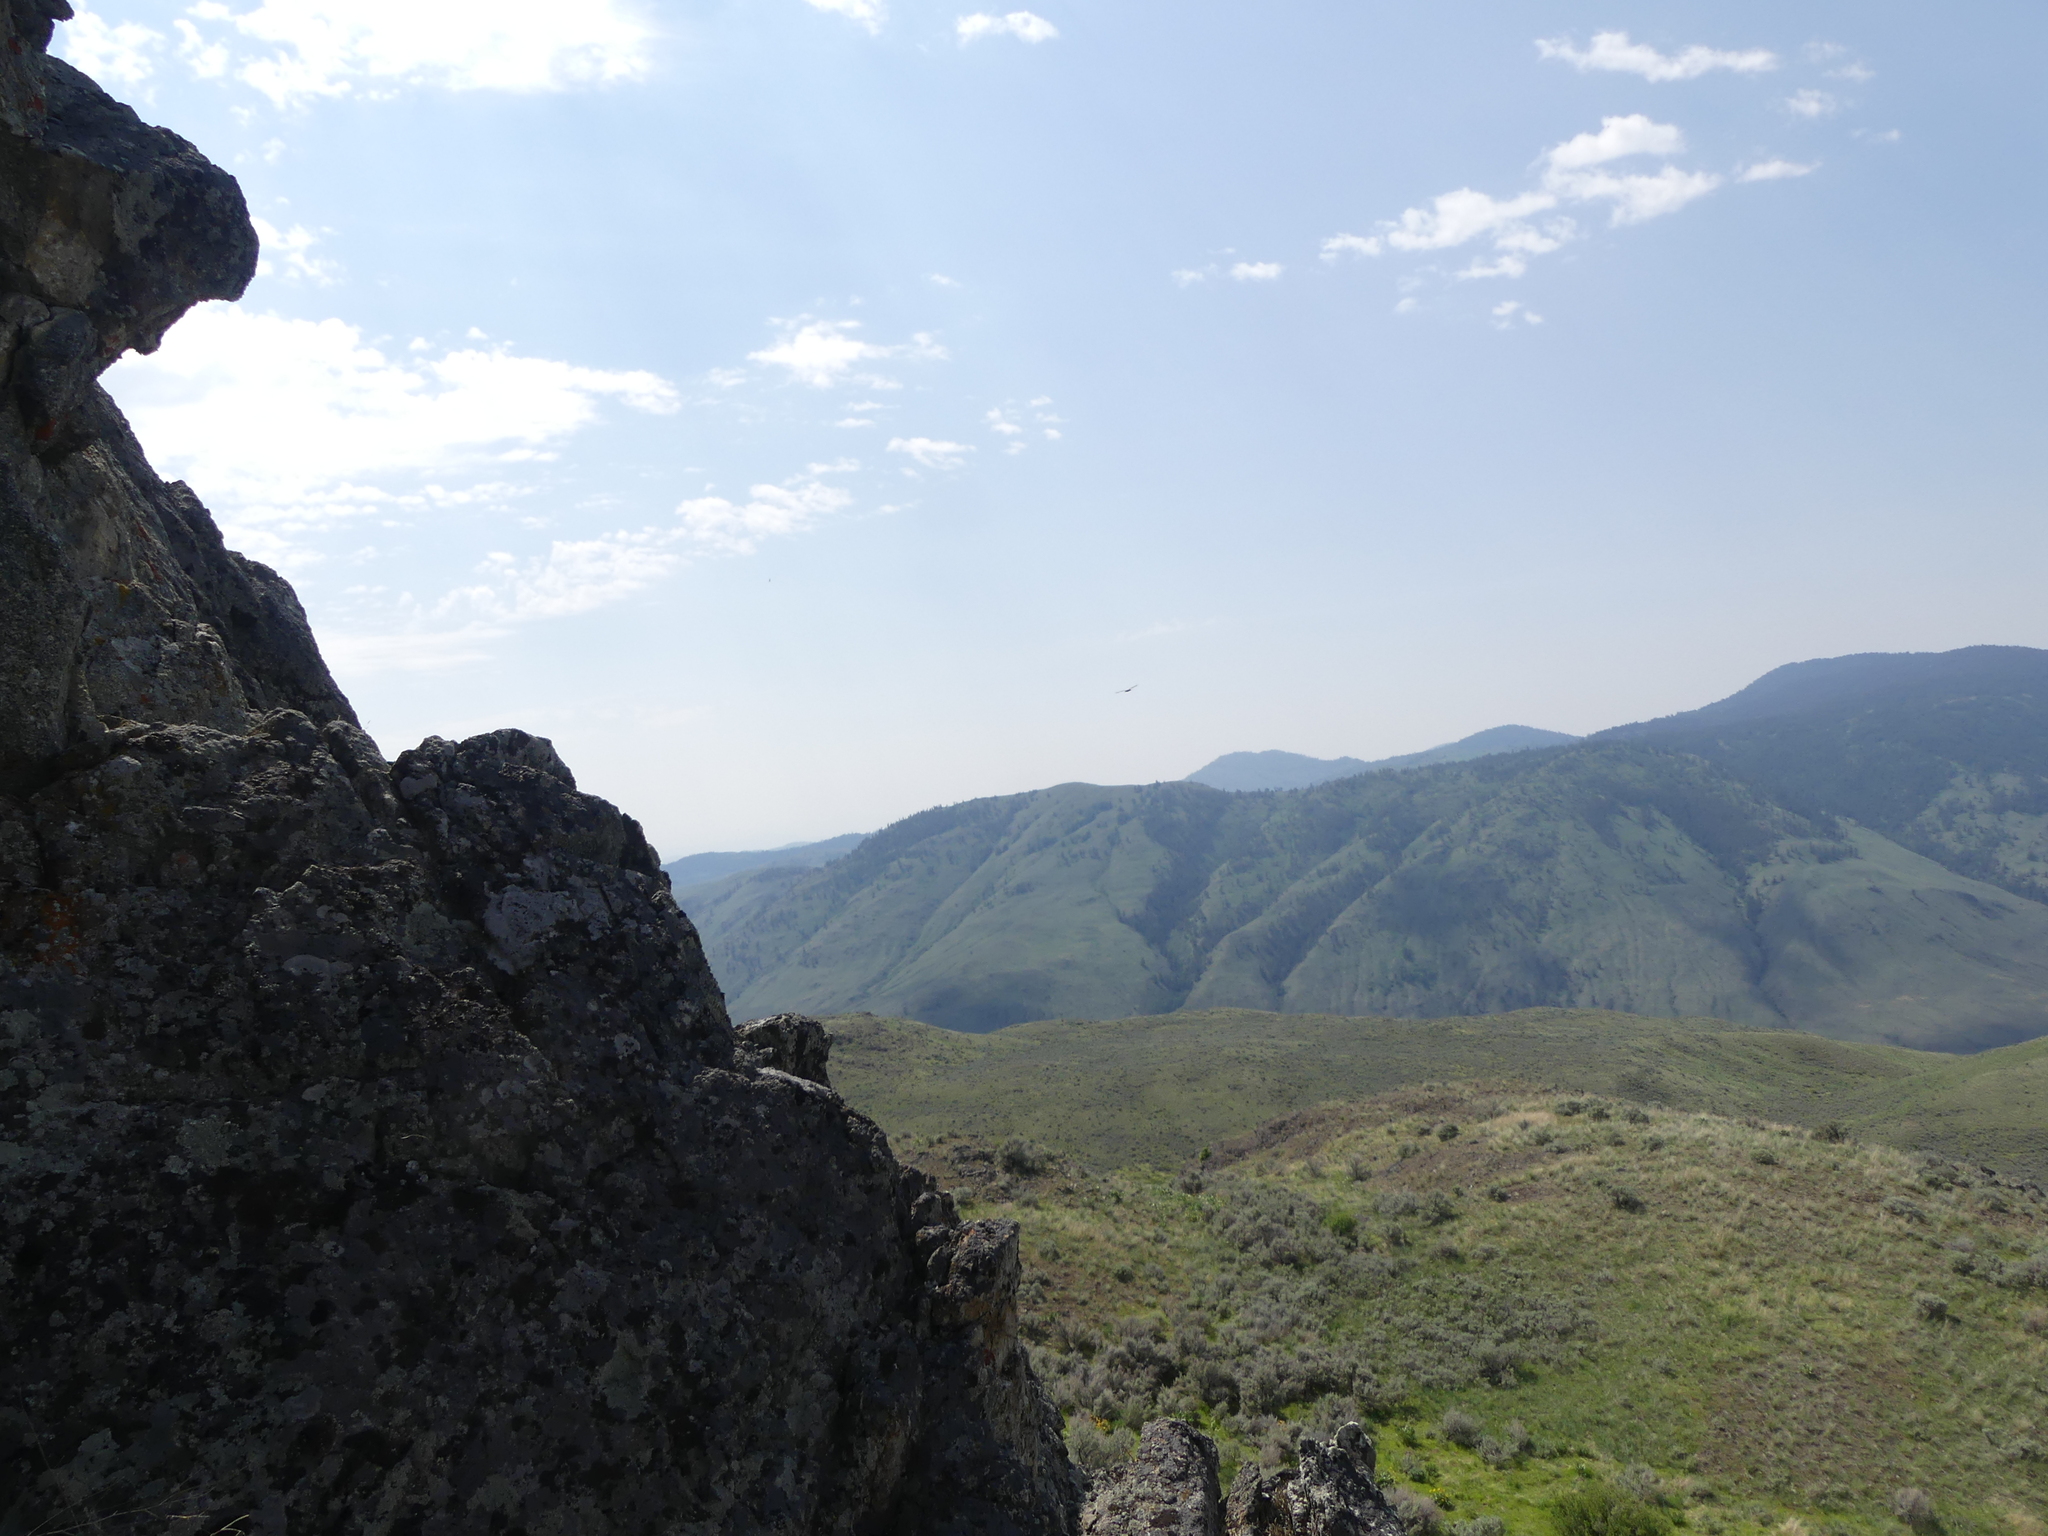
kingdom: Animalia
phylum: Chordata
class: Aves
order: Accipitriformes
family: Accipitridae
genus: Haliaeetus
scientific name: Haliaeetus leucocephalus
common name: Bald eagle
